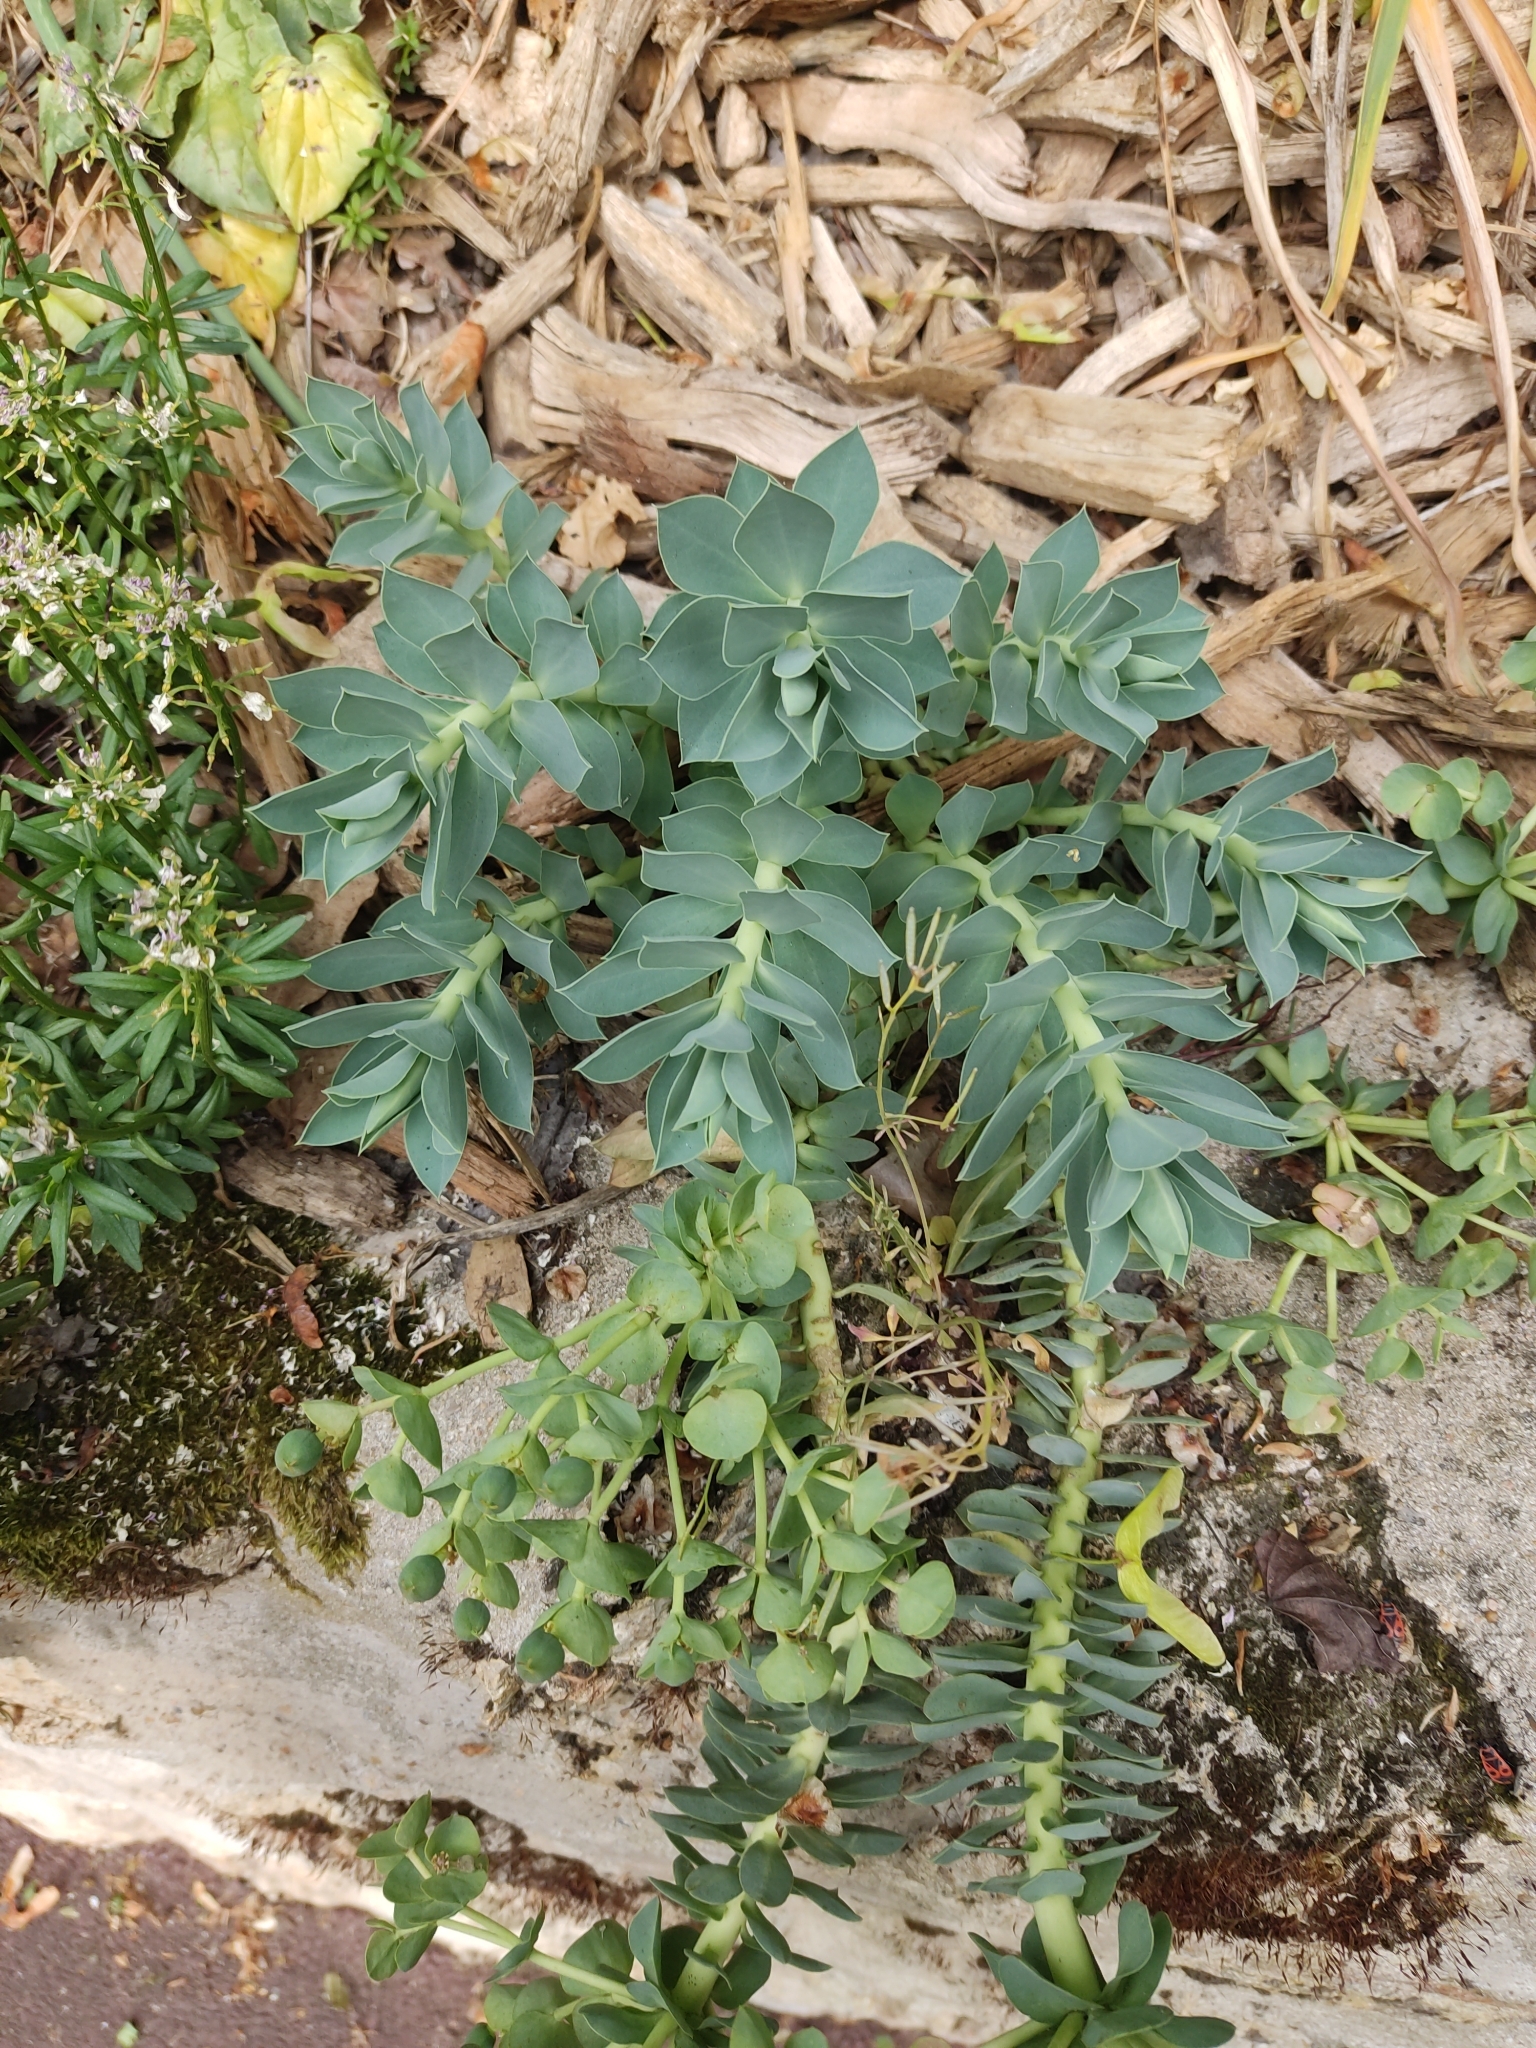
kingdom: Plantae
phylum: Tracheophyta
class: Magnoliopsida
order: Malpighiales
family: Euphorbiaceae
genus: Euphorbia
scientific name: Euphorbia myrsinites
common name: Myrtle spurge
